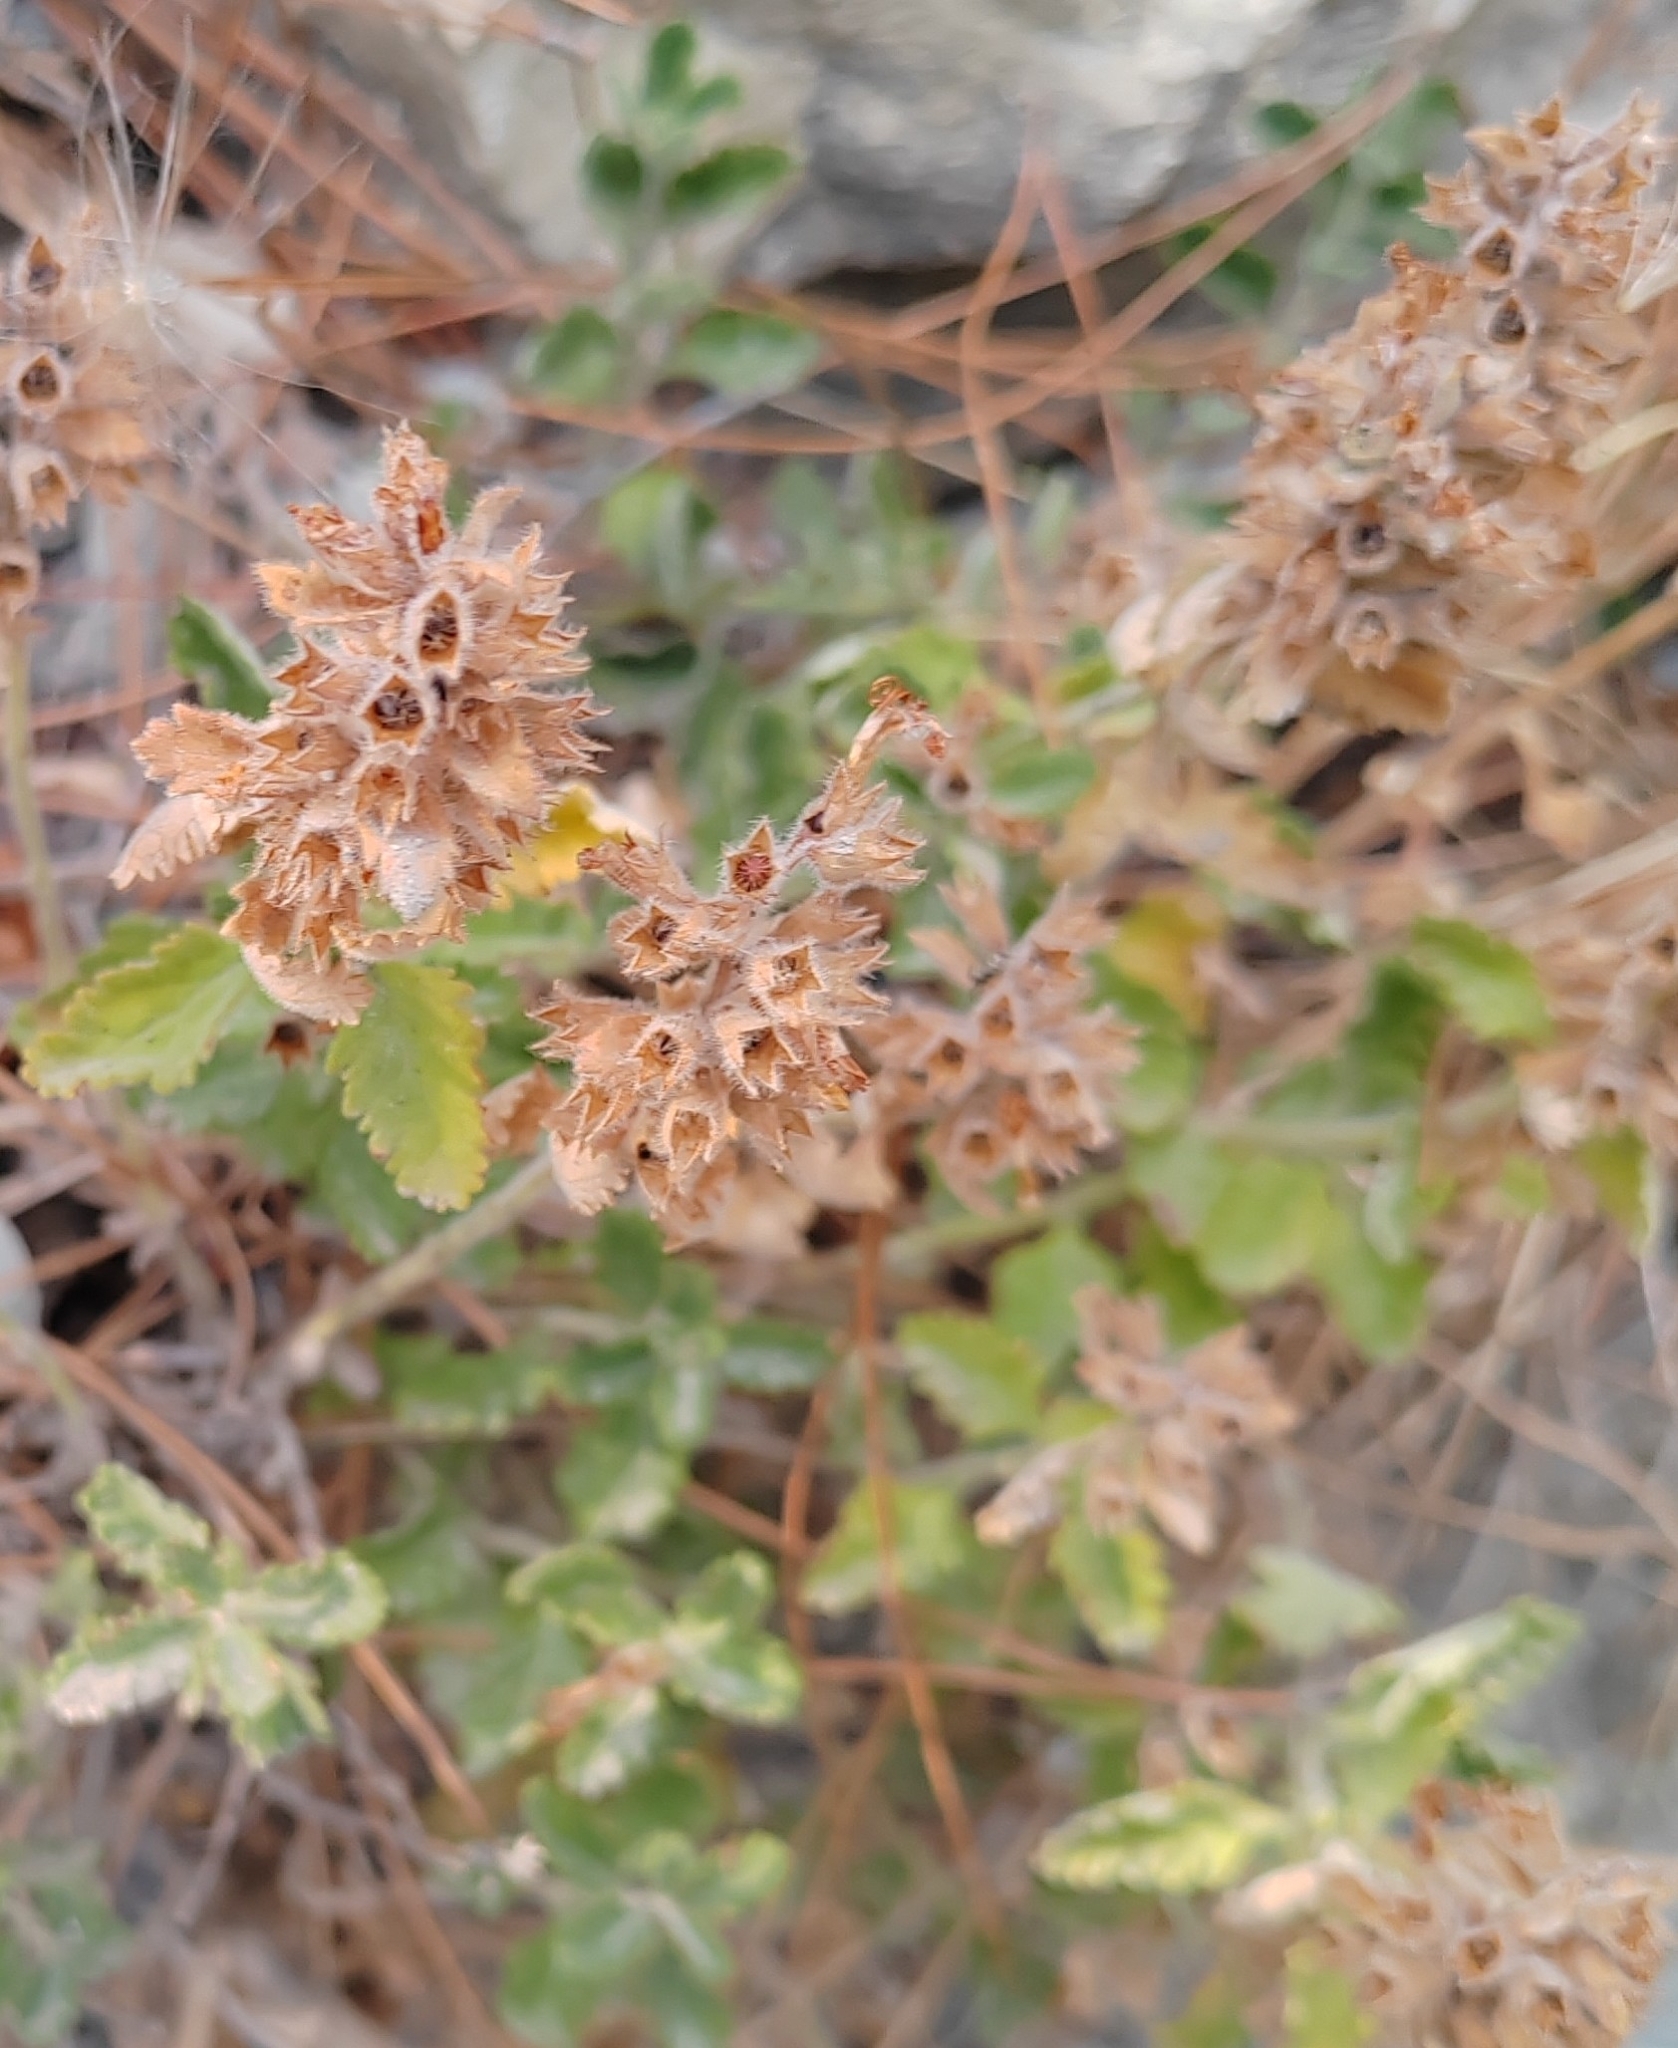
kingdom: Plantae
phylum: Tracheophyta
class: Magnoliopsida
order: Lamiales
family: Lamiaceae
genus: Teucrium
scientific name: Teucrium chamaedrys
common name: Wall germander
